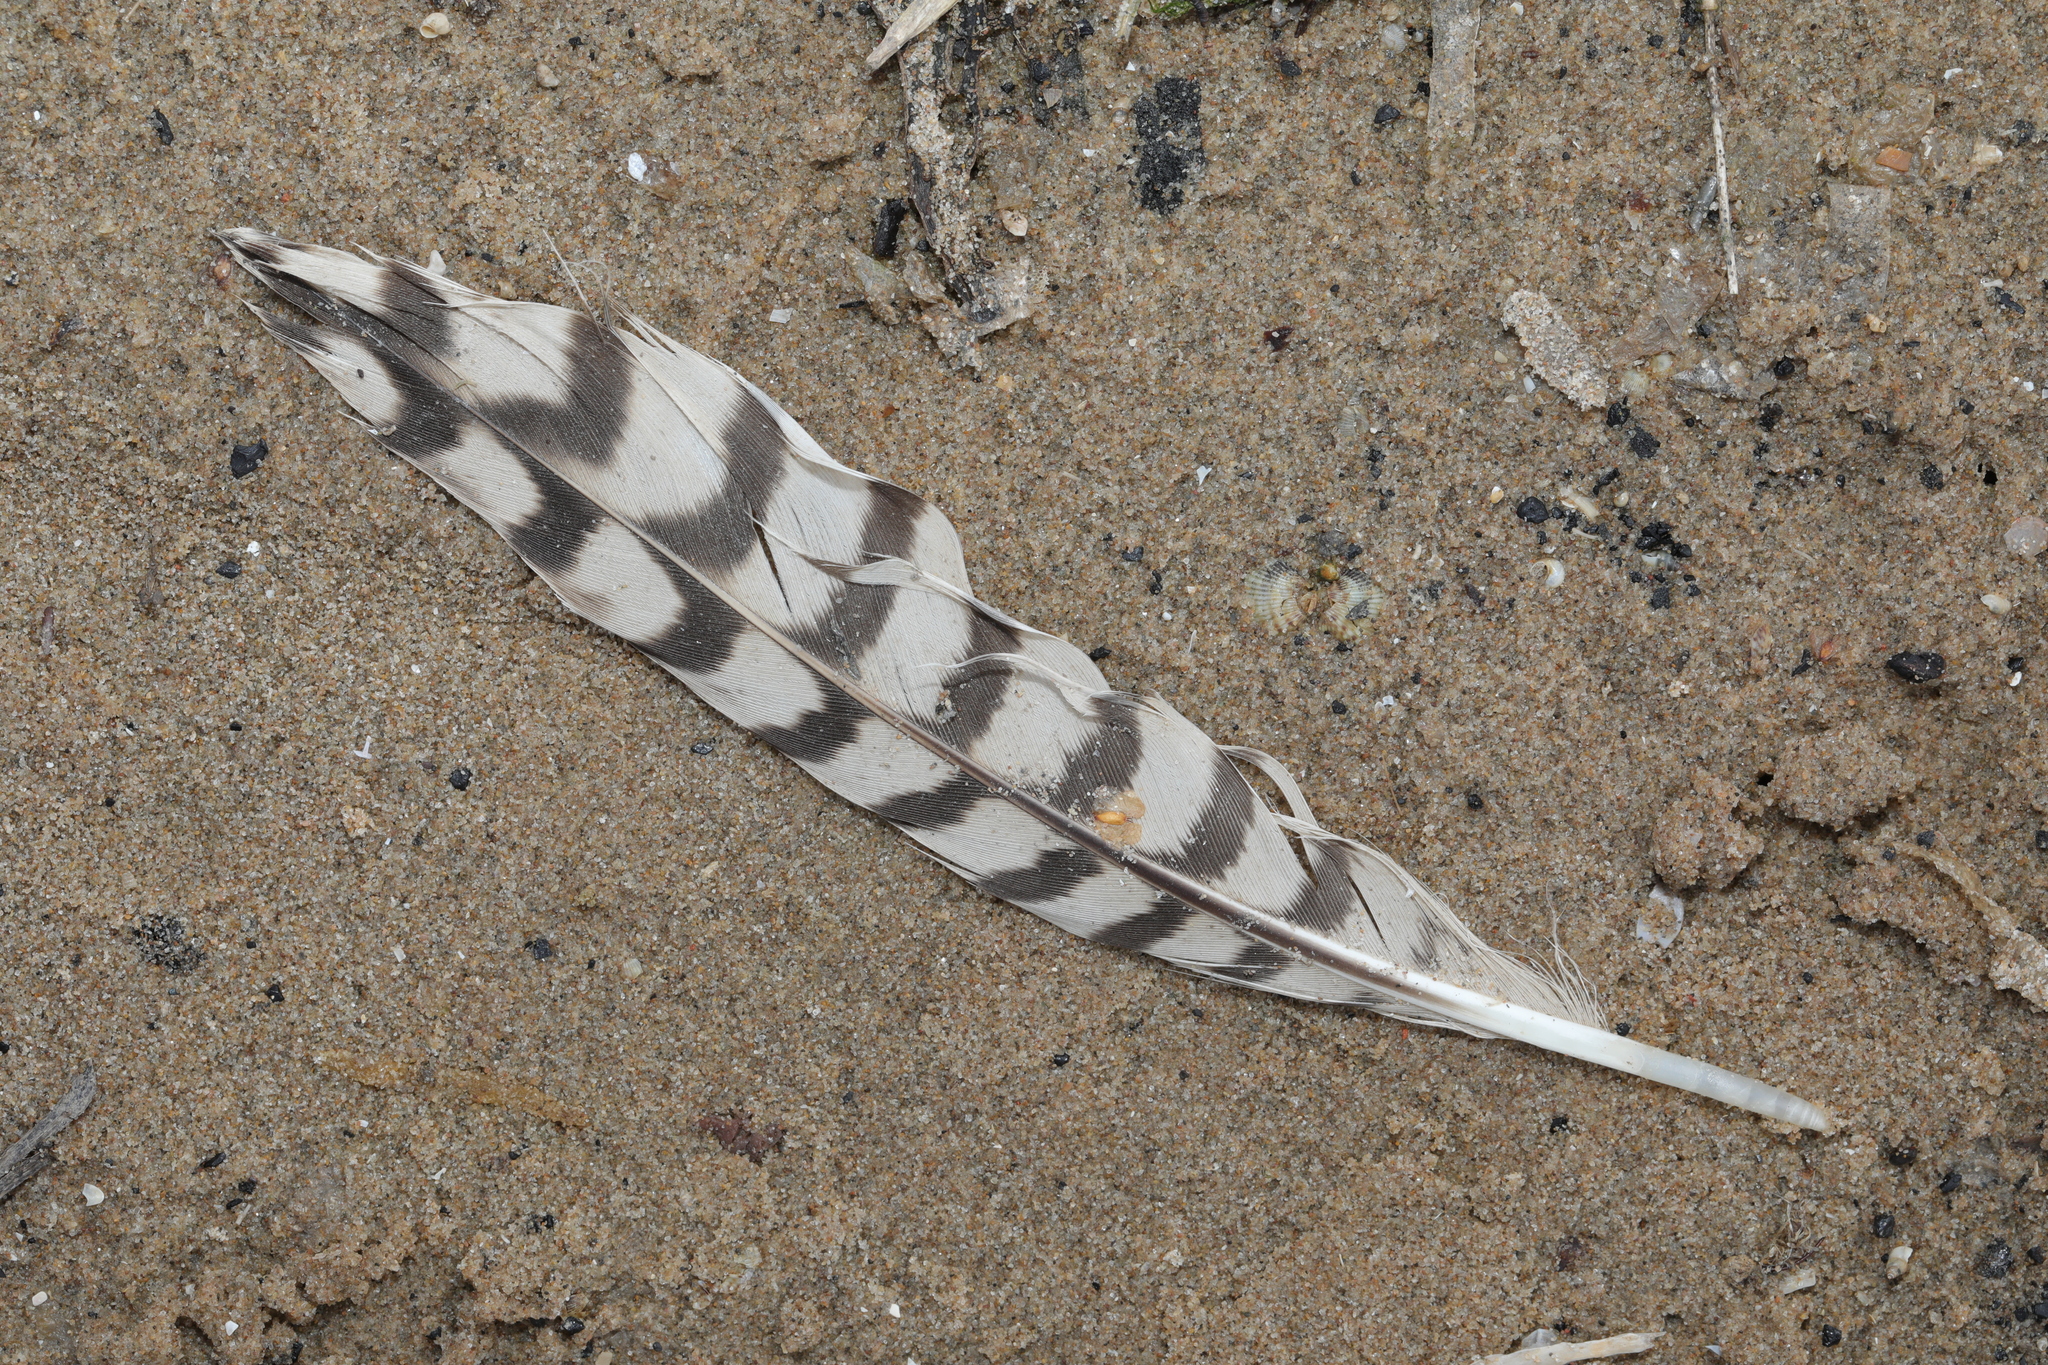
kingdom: Animalia
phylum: Chordata
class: Aves
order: Charadriiformes
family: Scolopacidae
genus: Numenius
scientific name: Numenius arquata
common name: Eurasian curlew
